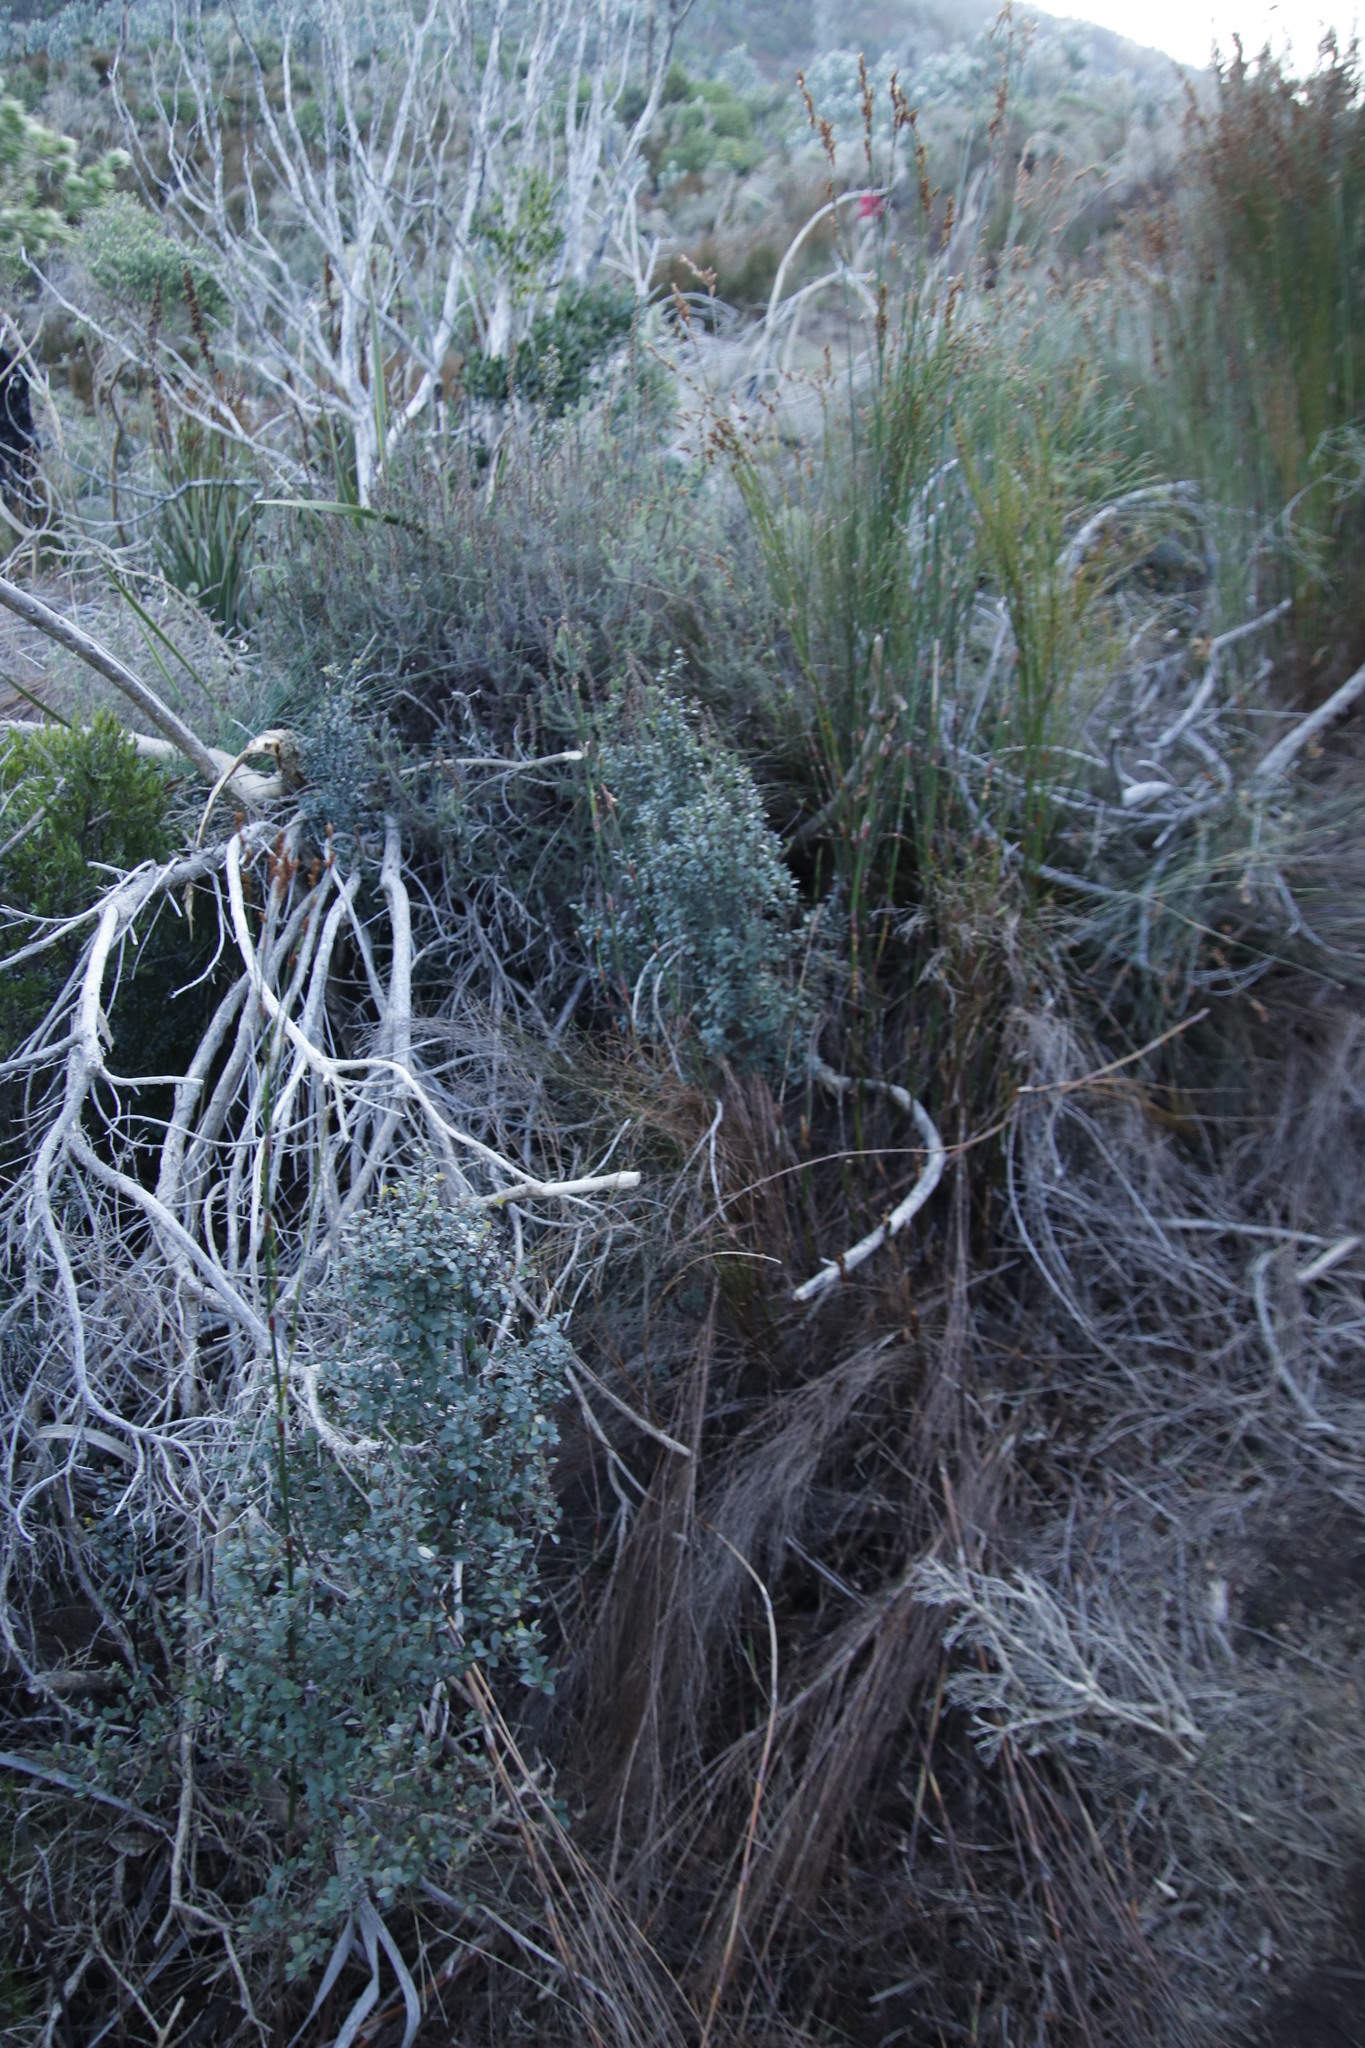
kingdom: Plantae
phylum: Tracheophyta
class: Magnoliopsida
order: Ericales
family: Primulaceae
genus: Myrsine
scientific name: Myrsine africana
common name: African-boxwood
